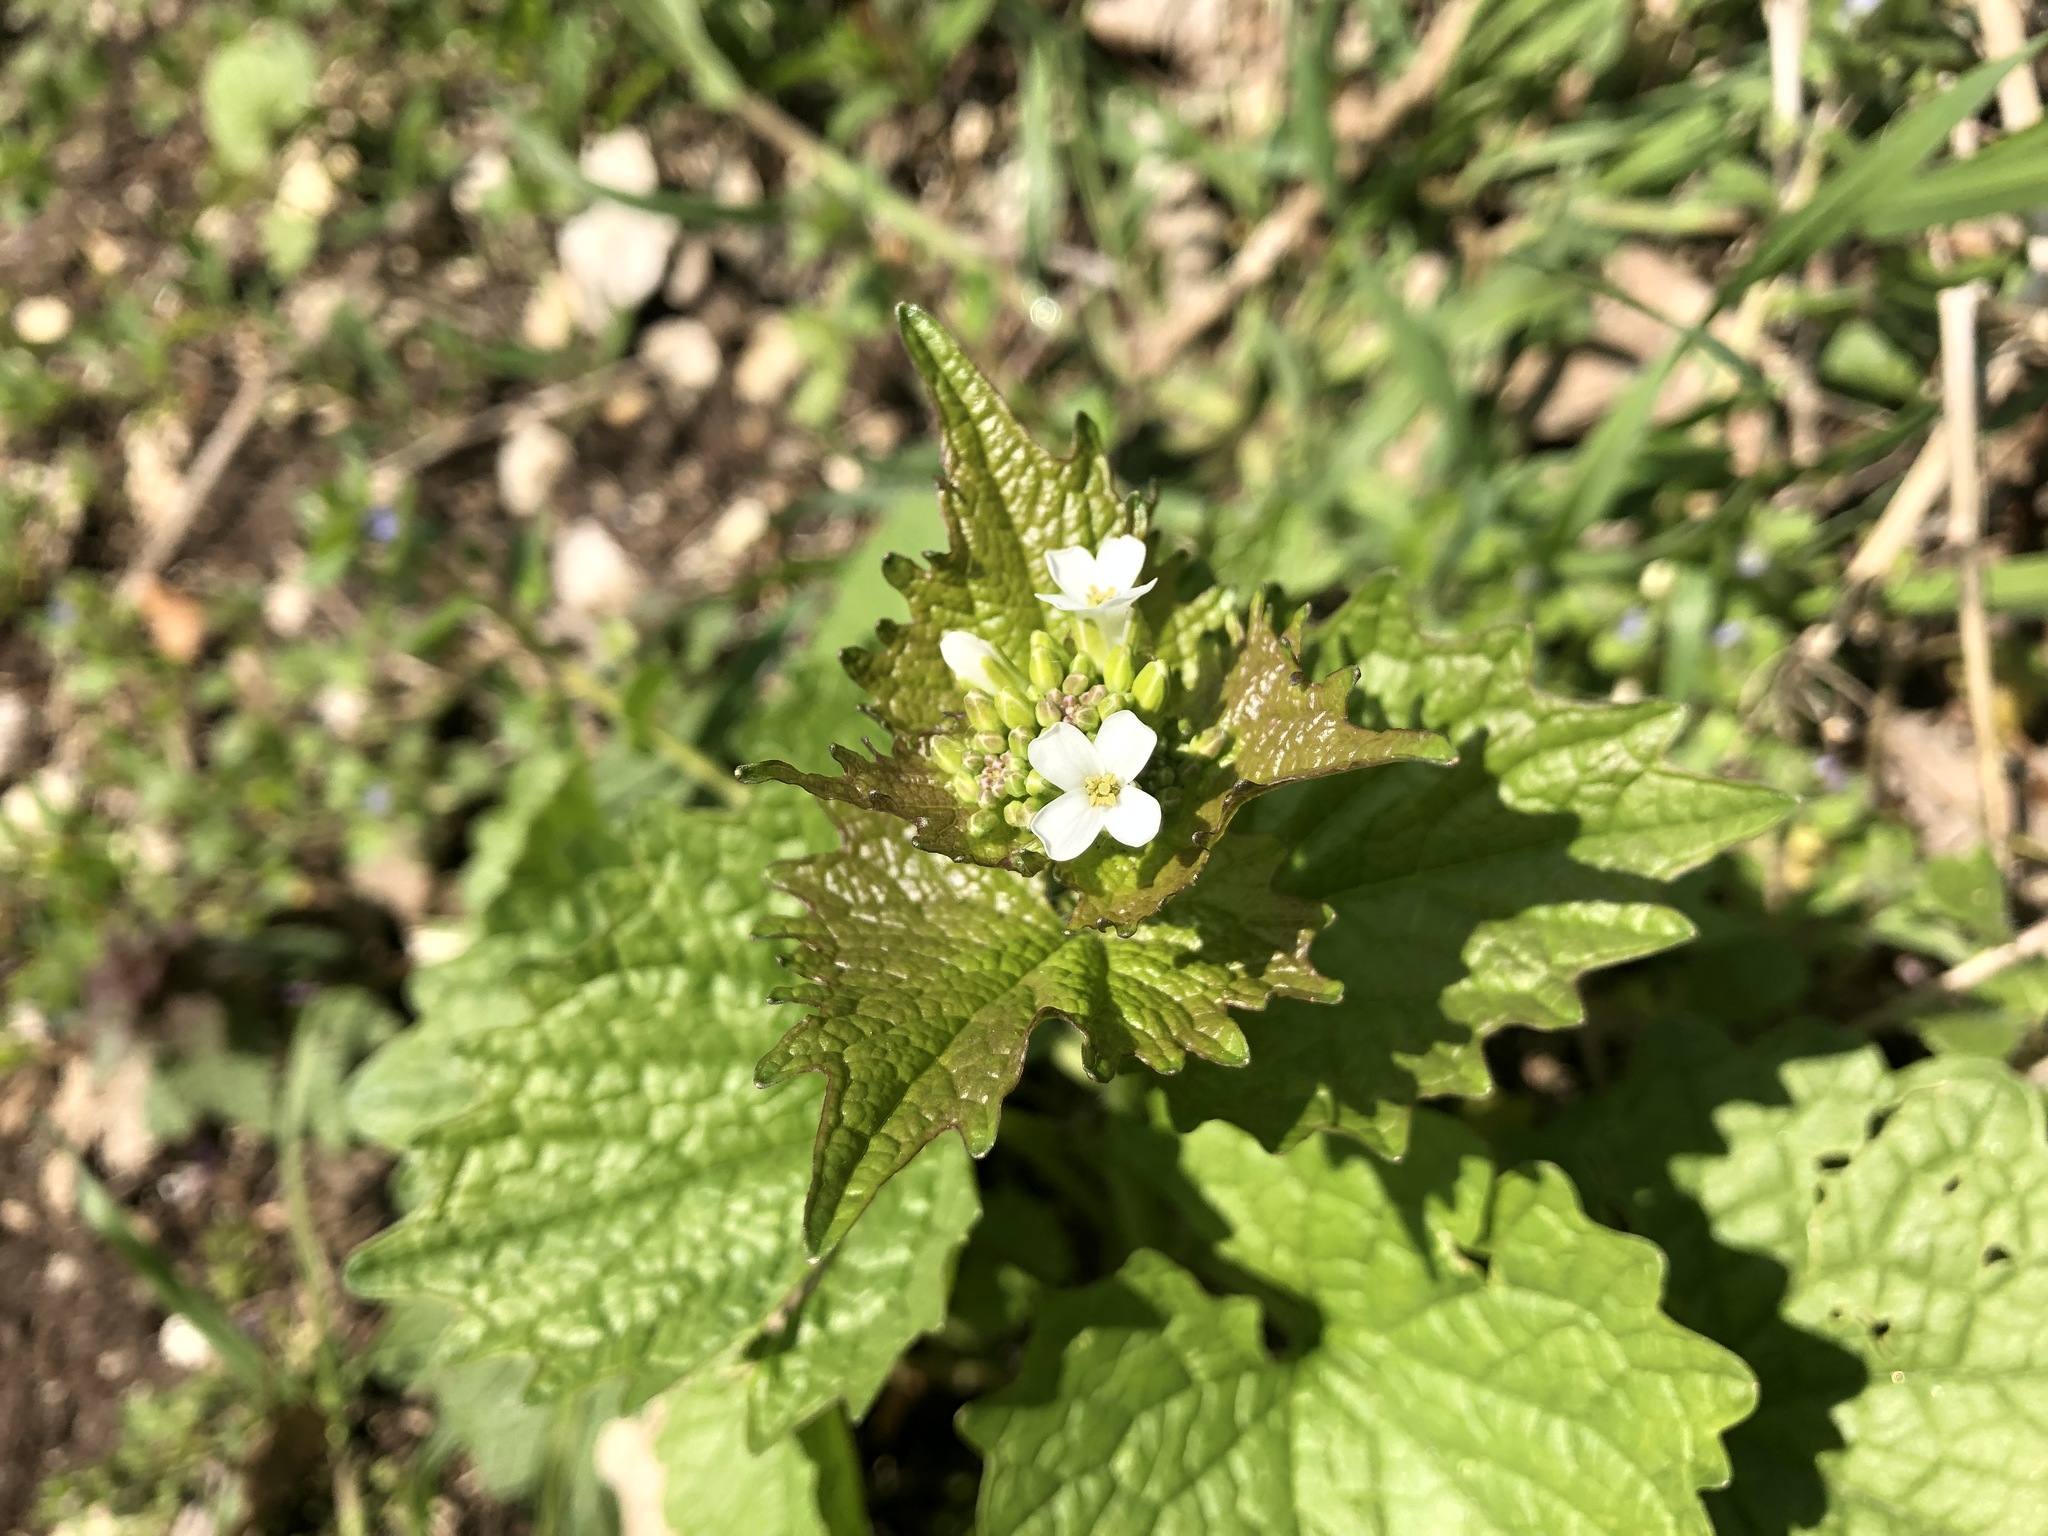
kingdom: Plantae
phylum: Tracheophyta
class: Magnoliopsida
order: Brassicales
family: Brassicaceae
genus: Alliaria
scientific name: Alliaria petiolata
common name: Garlic mustard
